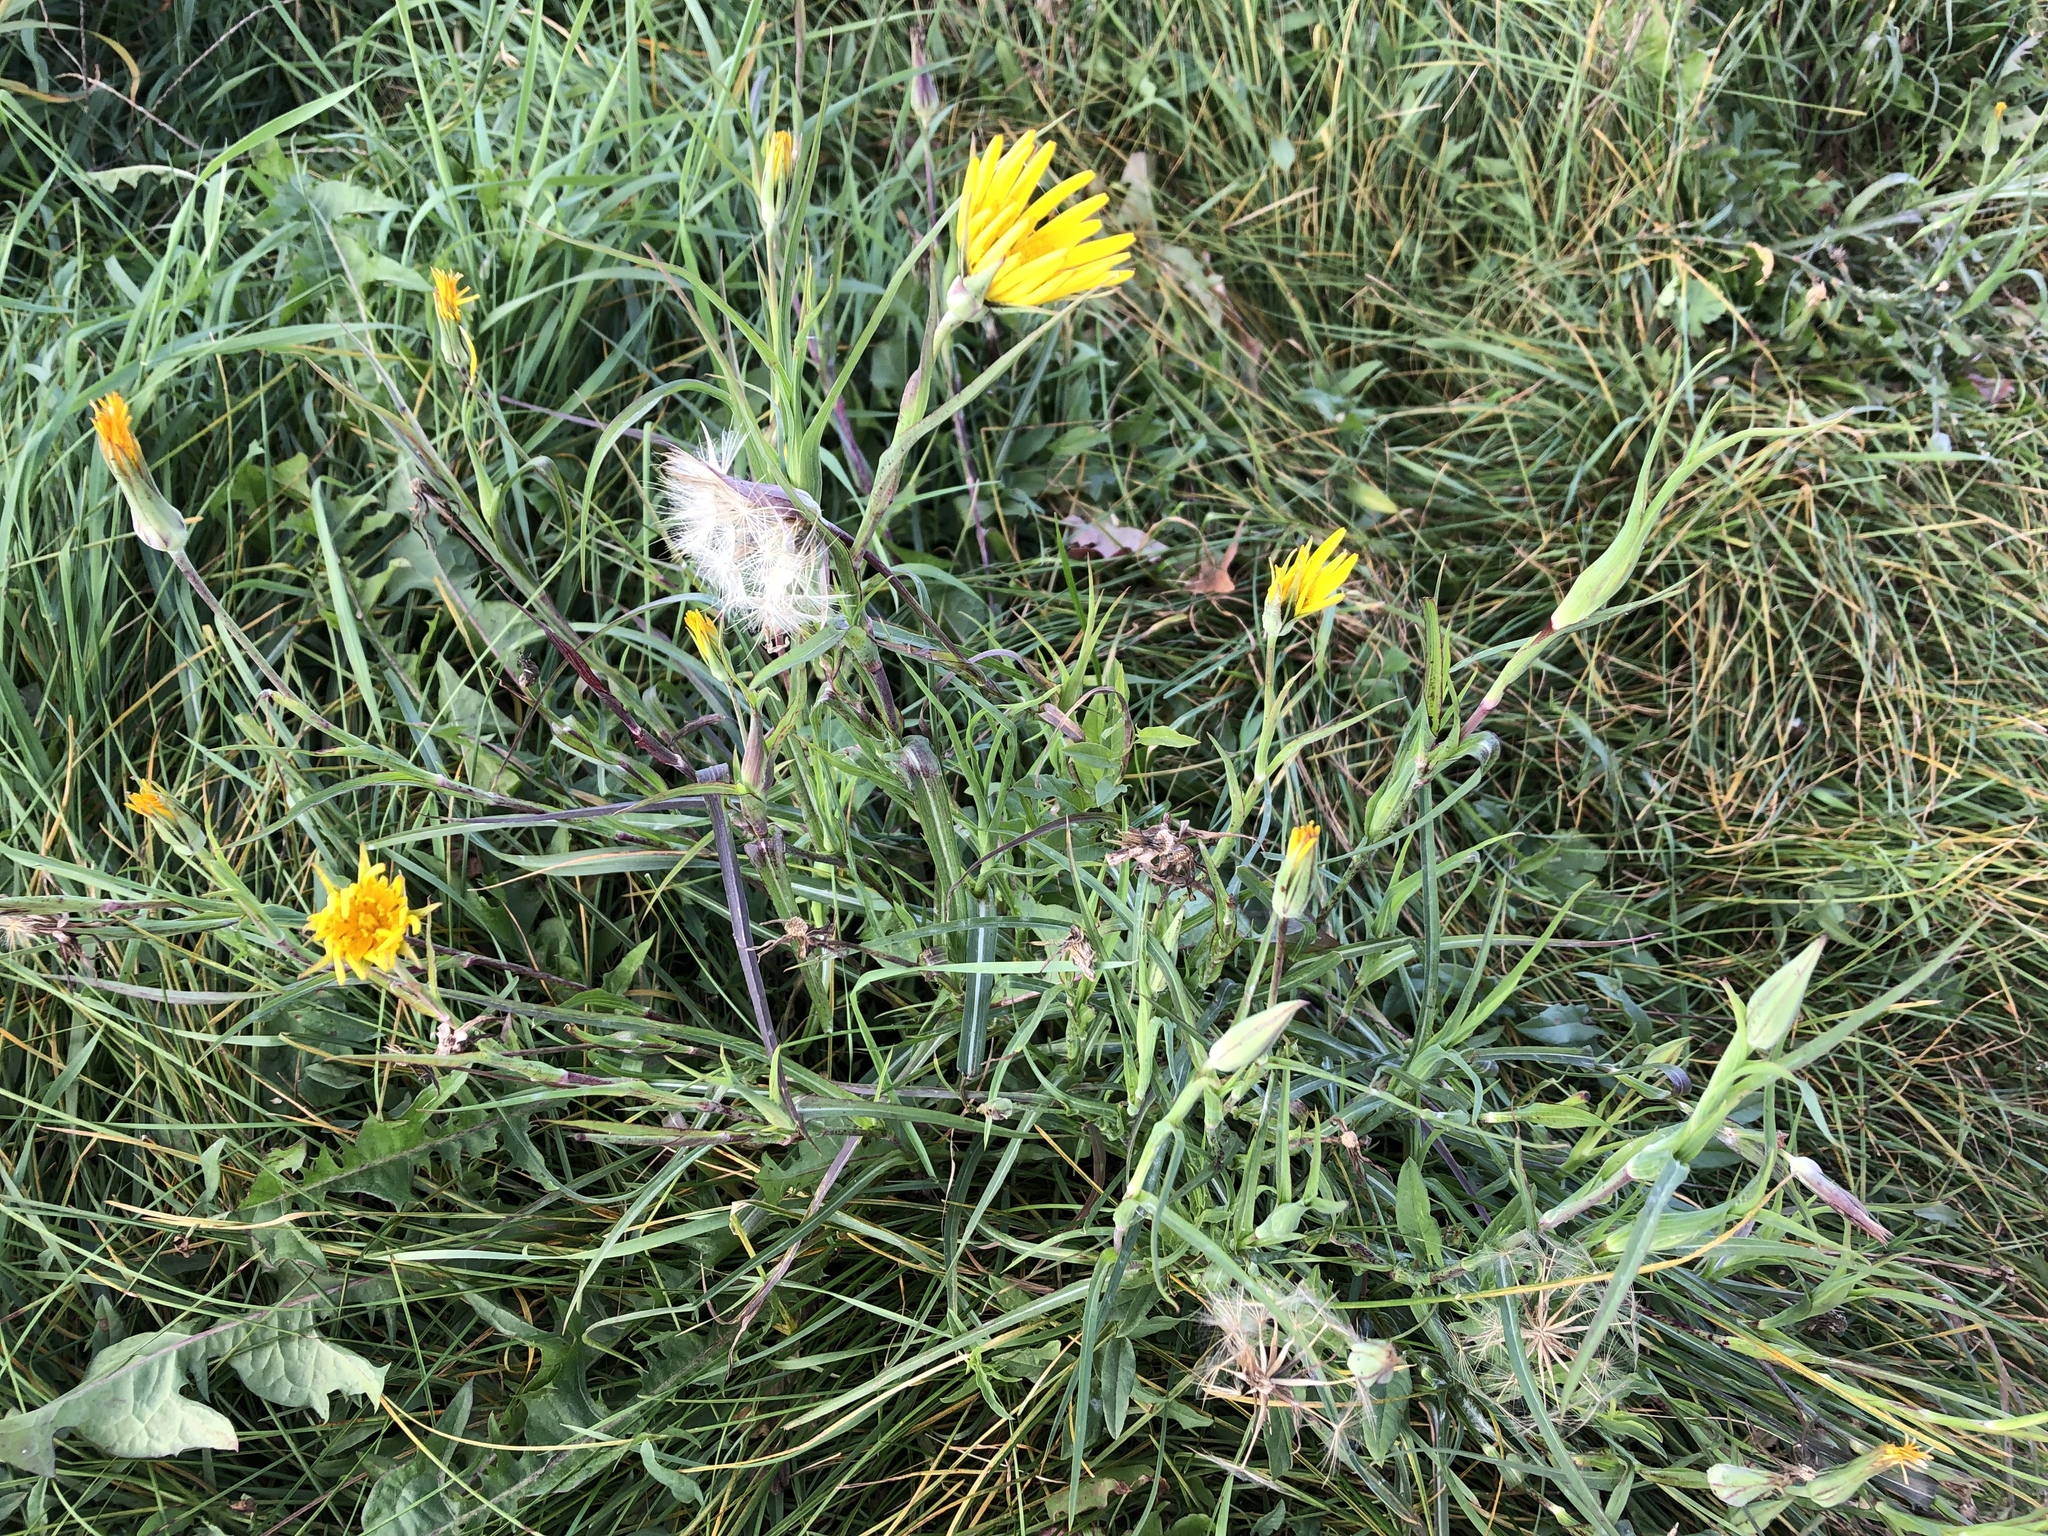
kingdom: Plantae
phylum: Tracheophyta
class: Magnoliopsida
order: Asterales
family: Asteraceae
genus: Tragopogon
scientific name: Tragopogon orientalis
